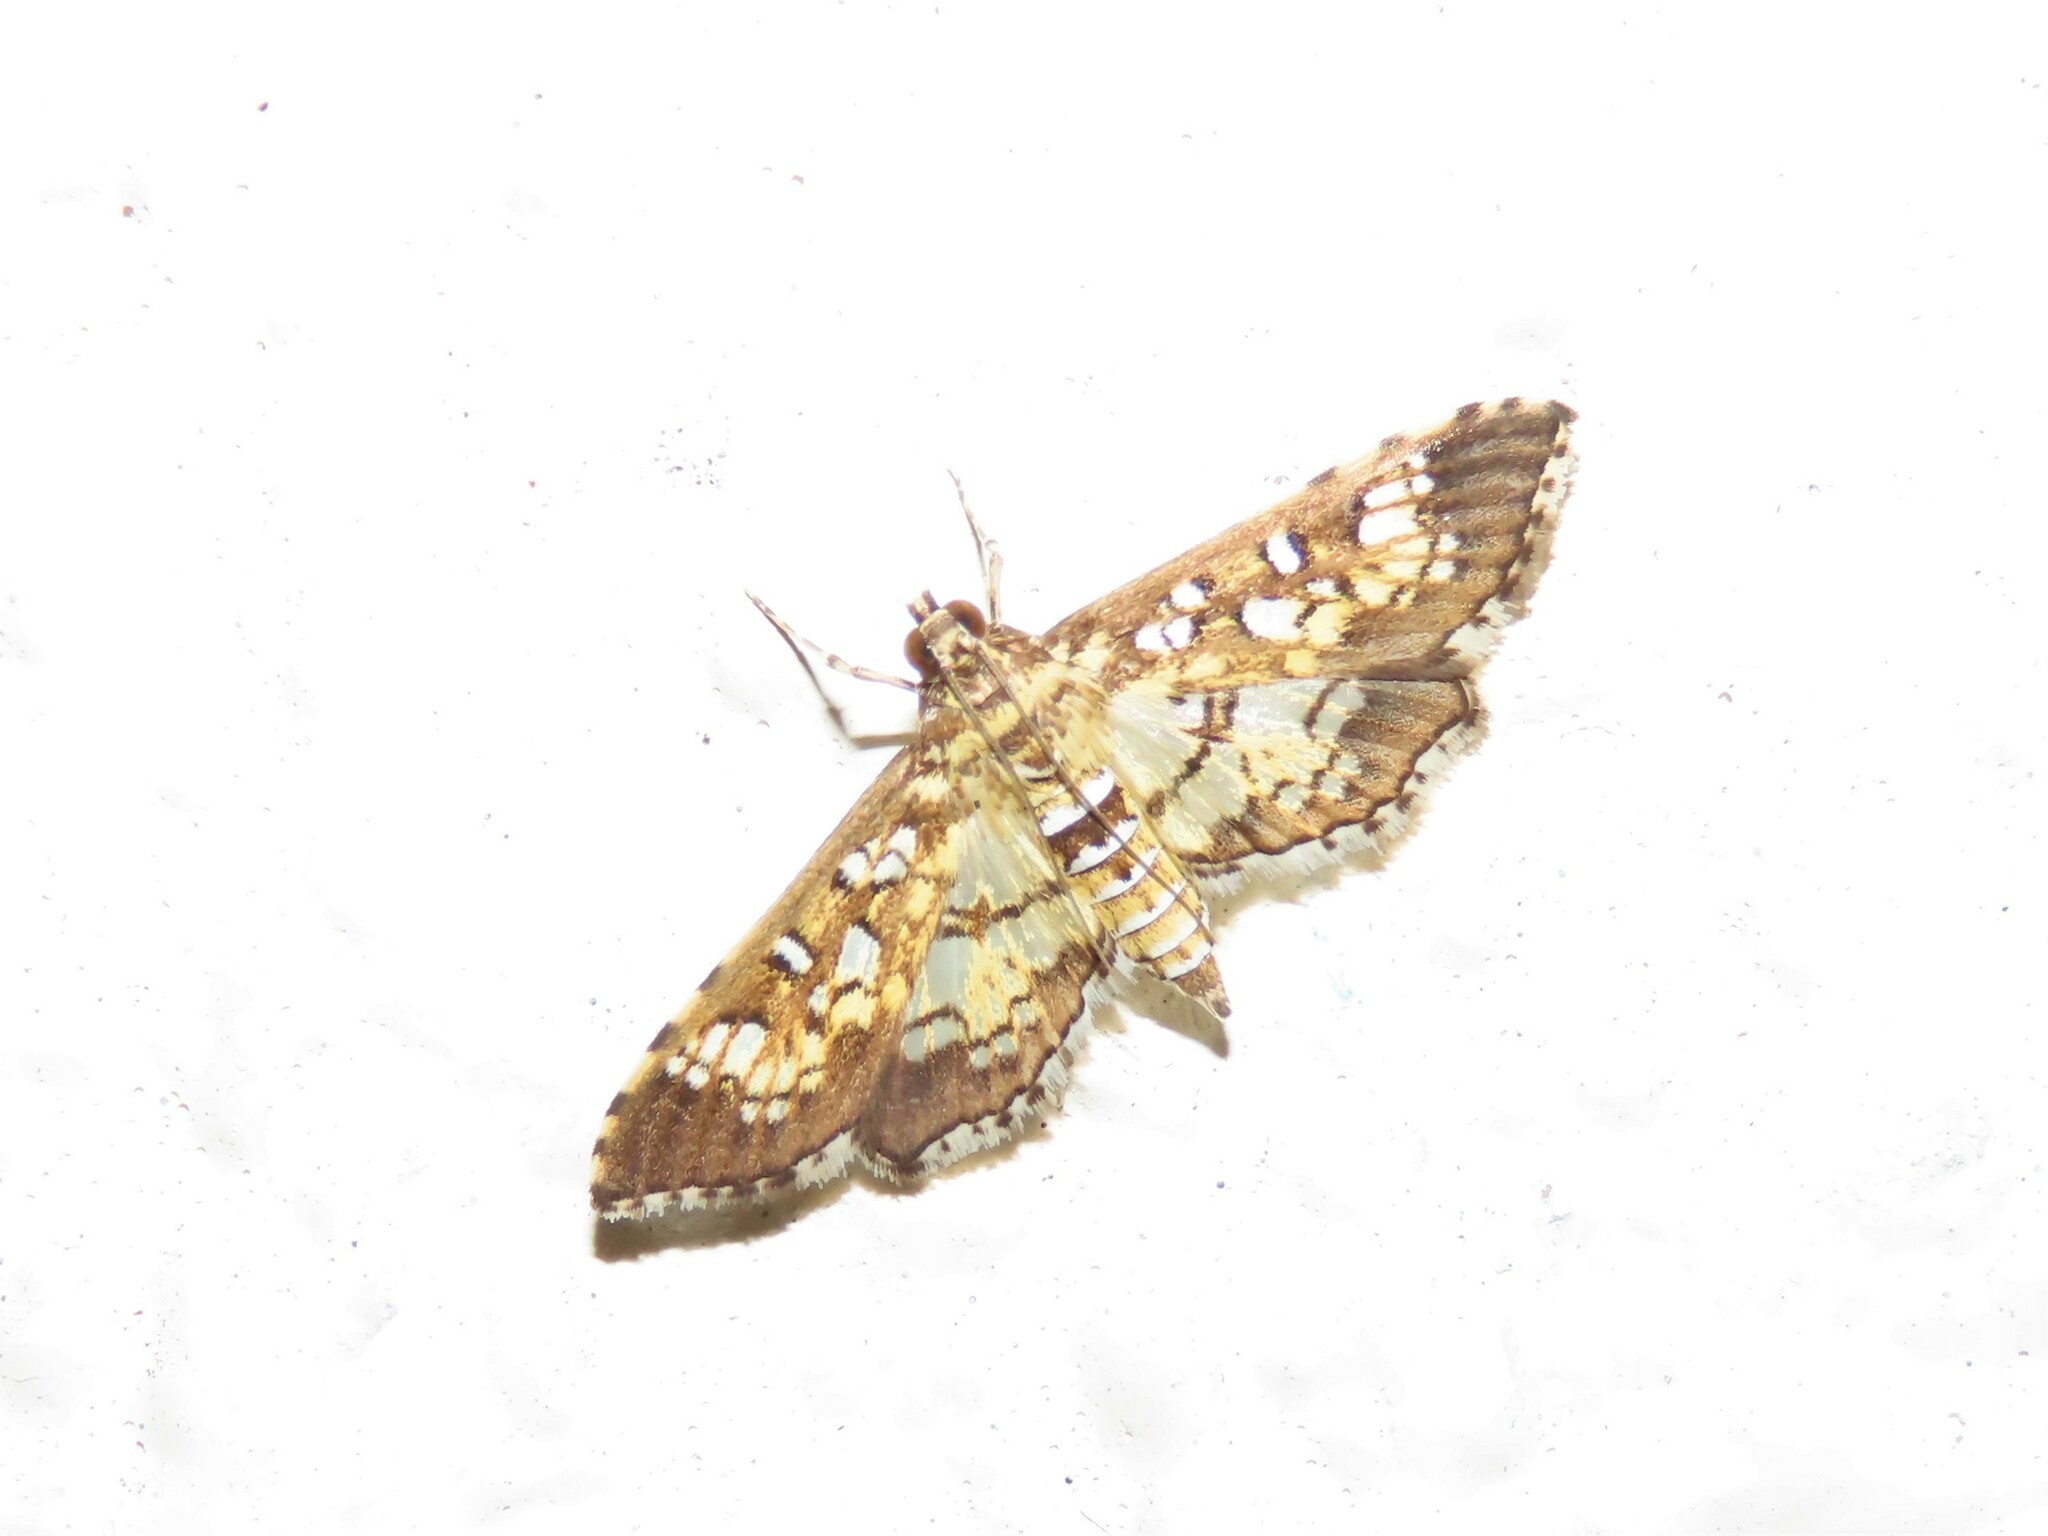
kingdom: Animalia
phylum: Arthropoda
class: Insecta
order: Lepidoptera
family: Crambidae
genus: Samea
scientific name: Samea ecclesialis
